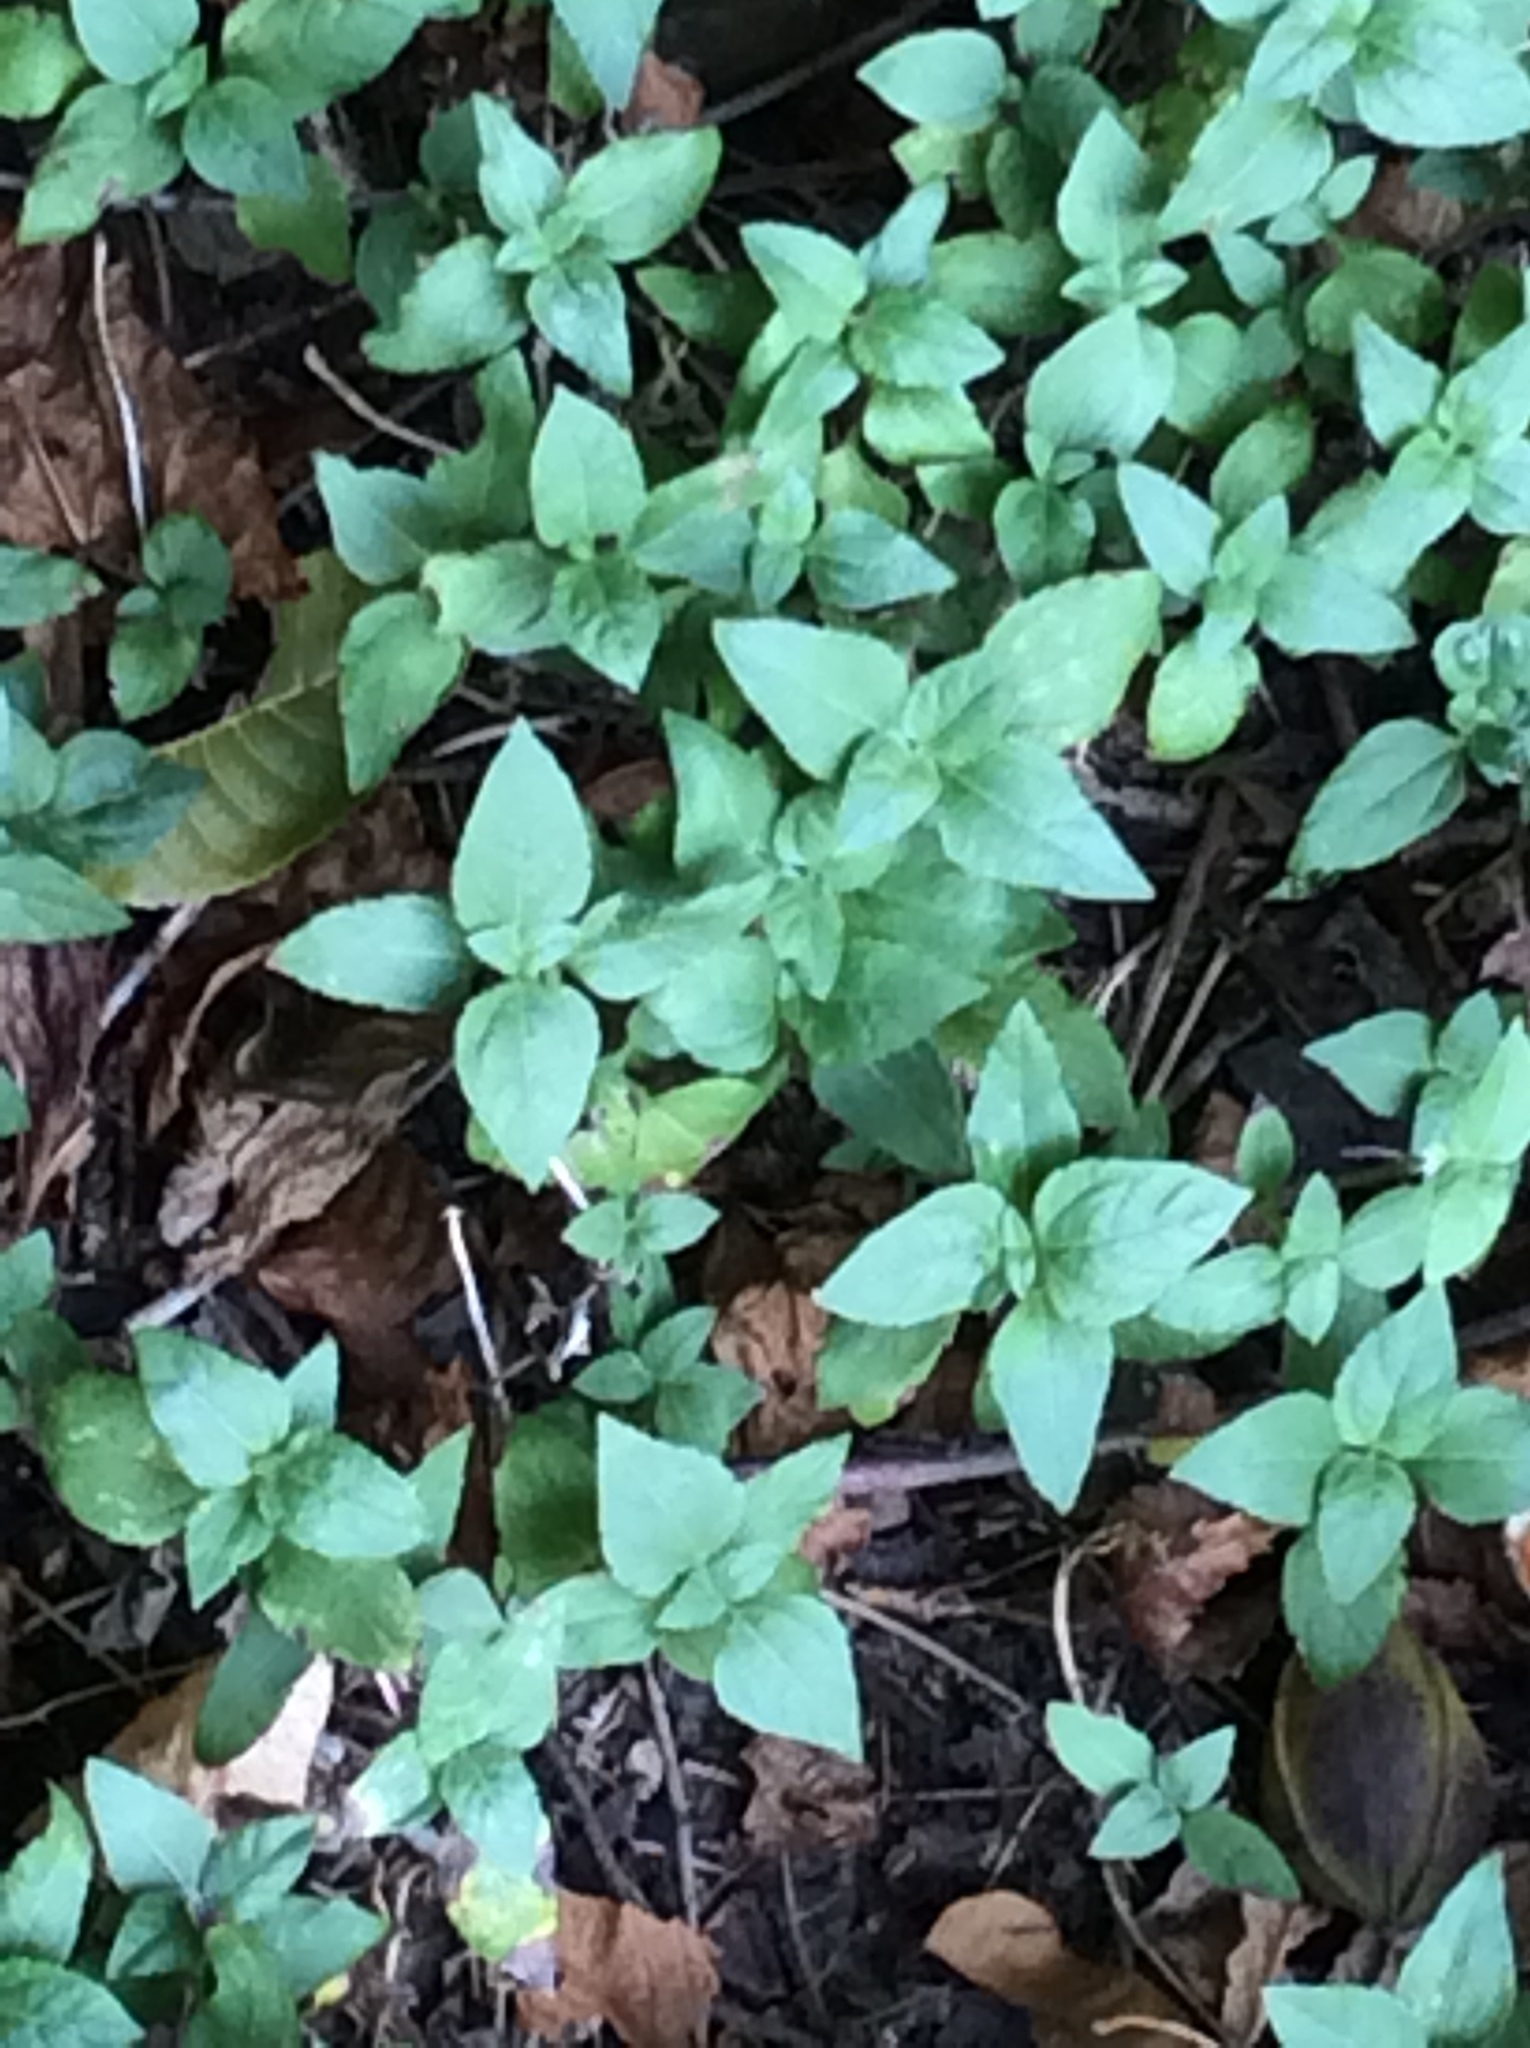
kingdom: Plantae
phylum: Tracheophyta
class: Magnoliopsida
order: Asterales
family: Asteraceae
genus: Calyptocarpus
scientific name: Calyptocarpus vialis
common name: Straggler daisy
